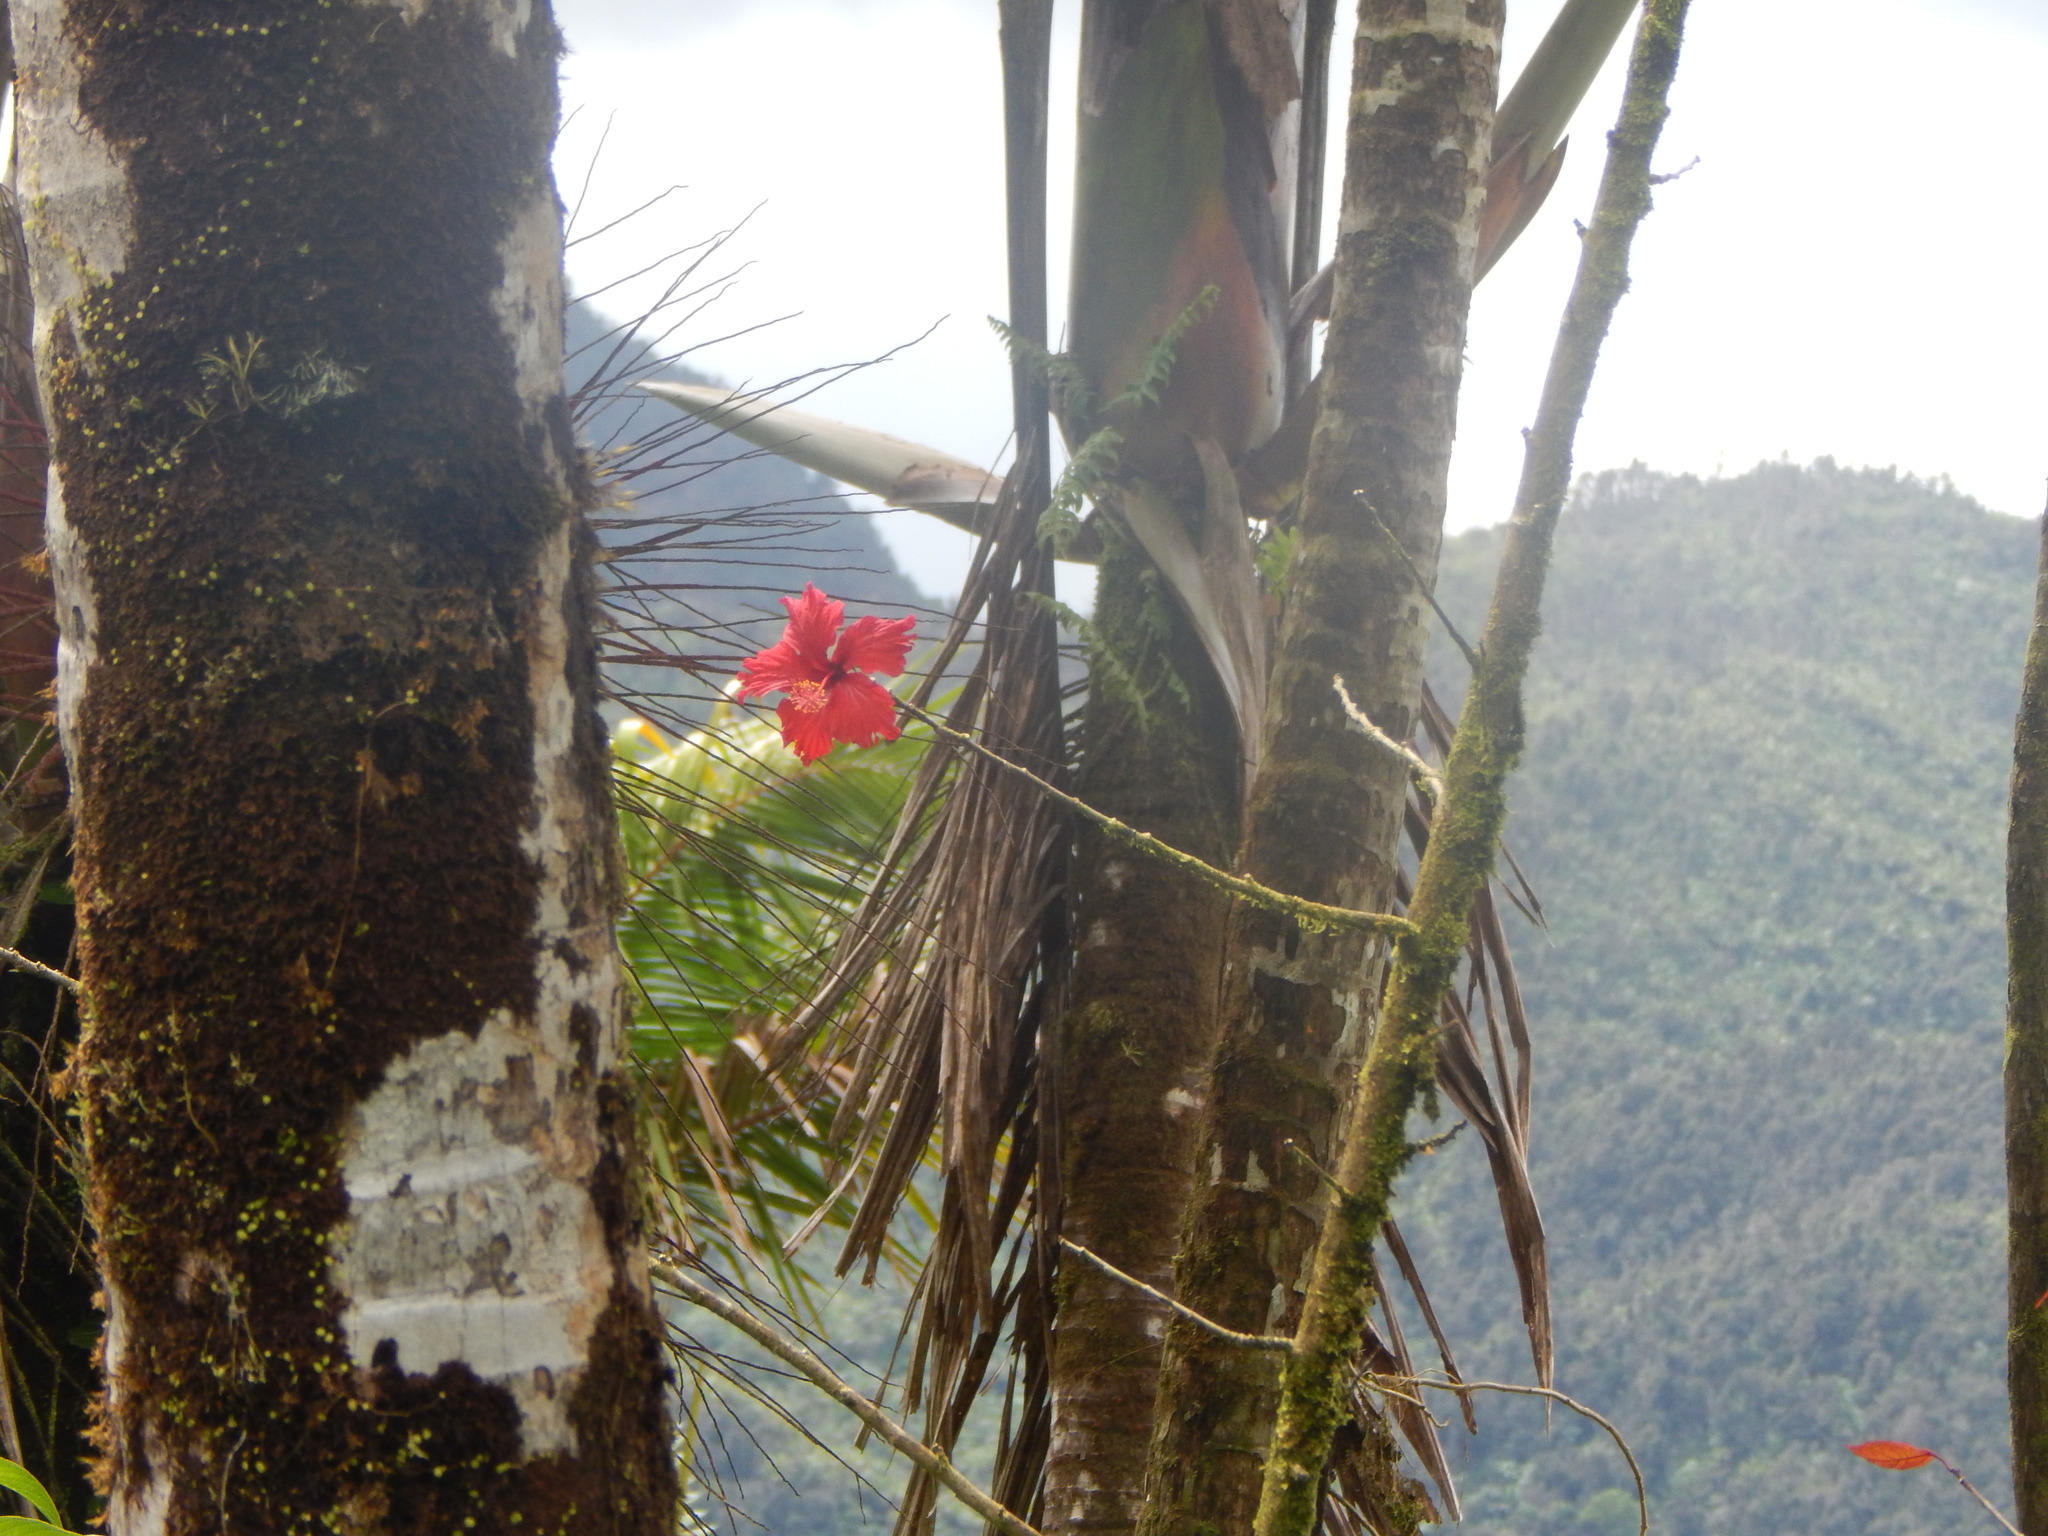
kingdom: Plantae
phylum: Tracheophyta
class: Magnoliopsida
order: Malvales
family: Malvaceae
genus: Hibiscus
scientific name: Hibiscus archeri
